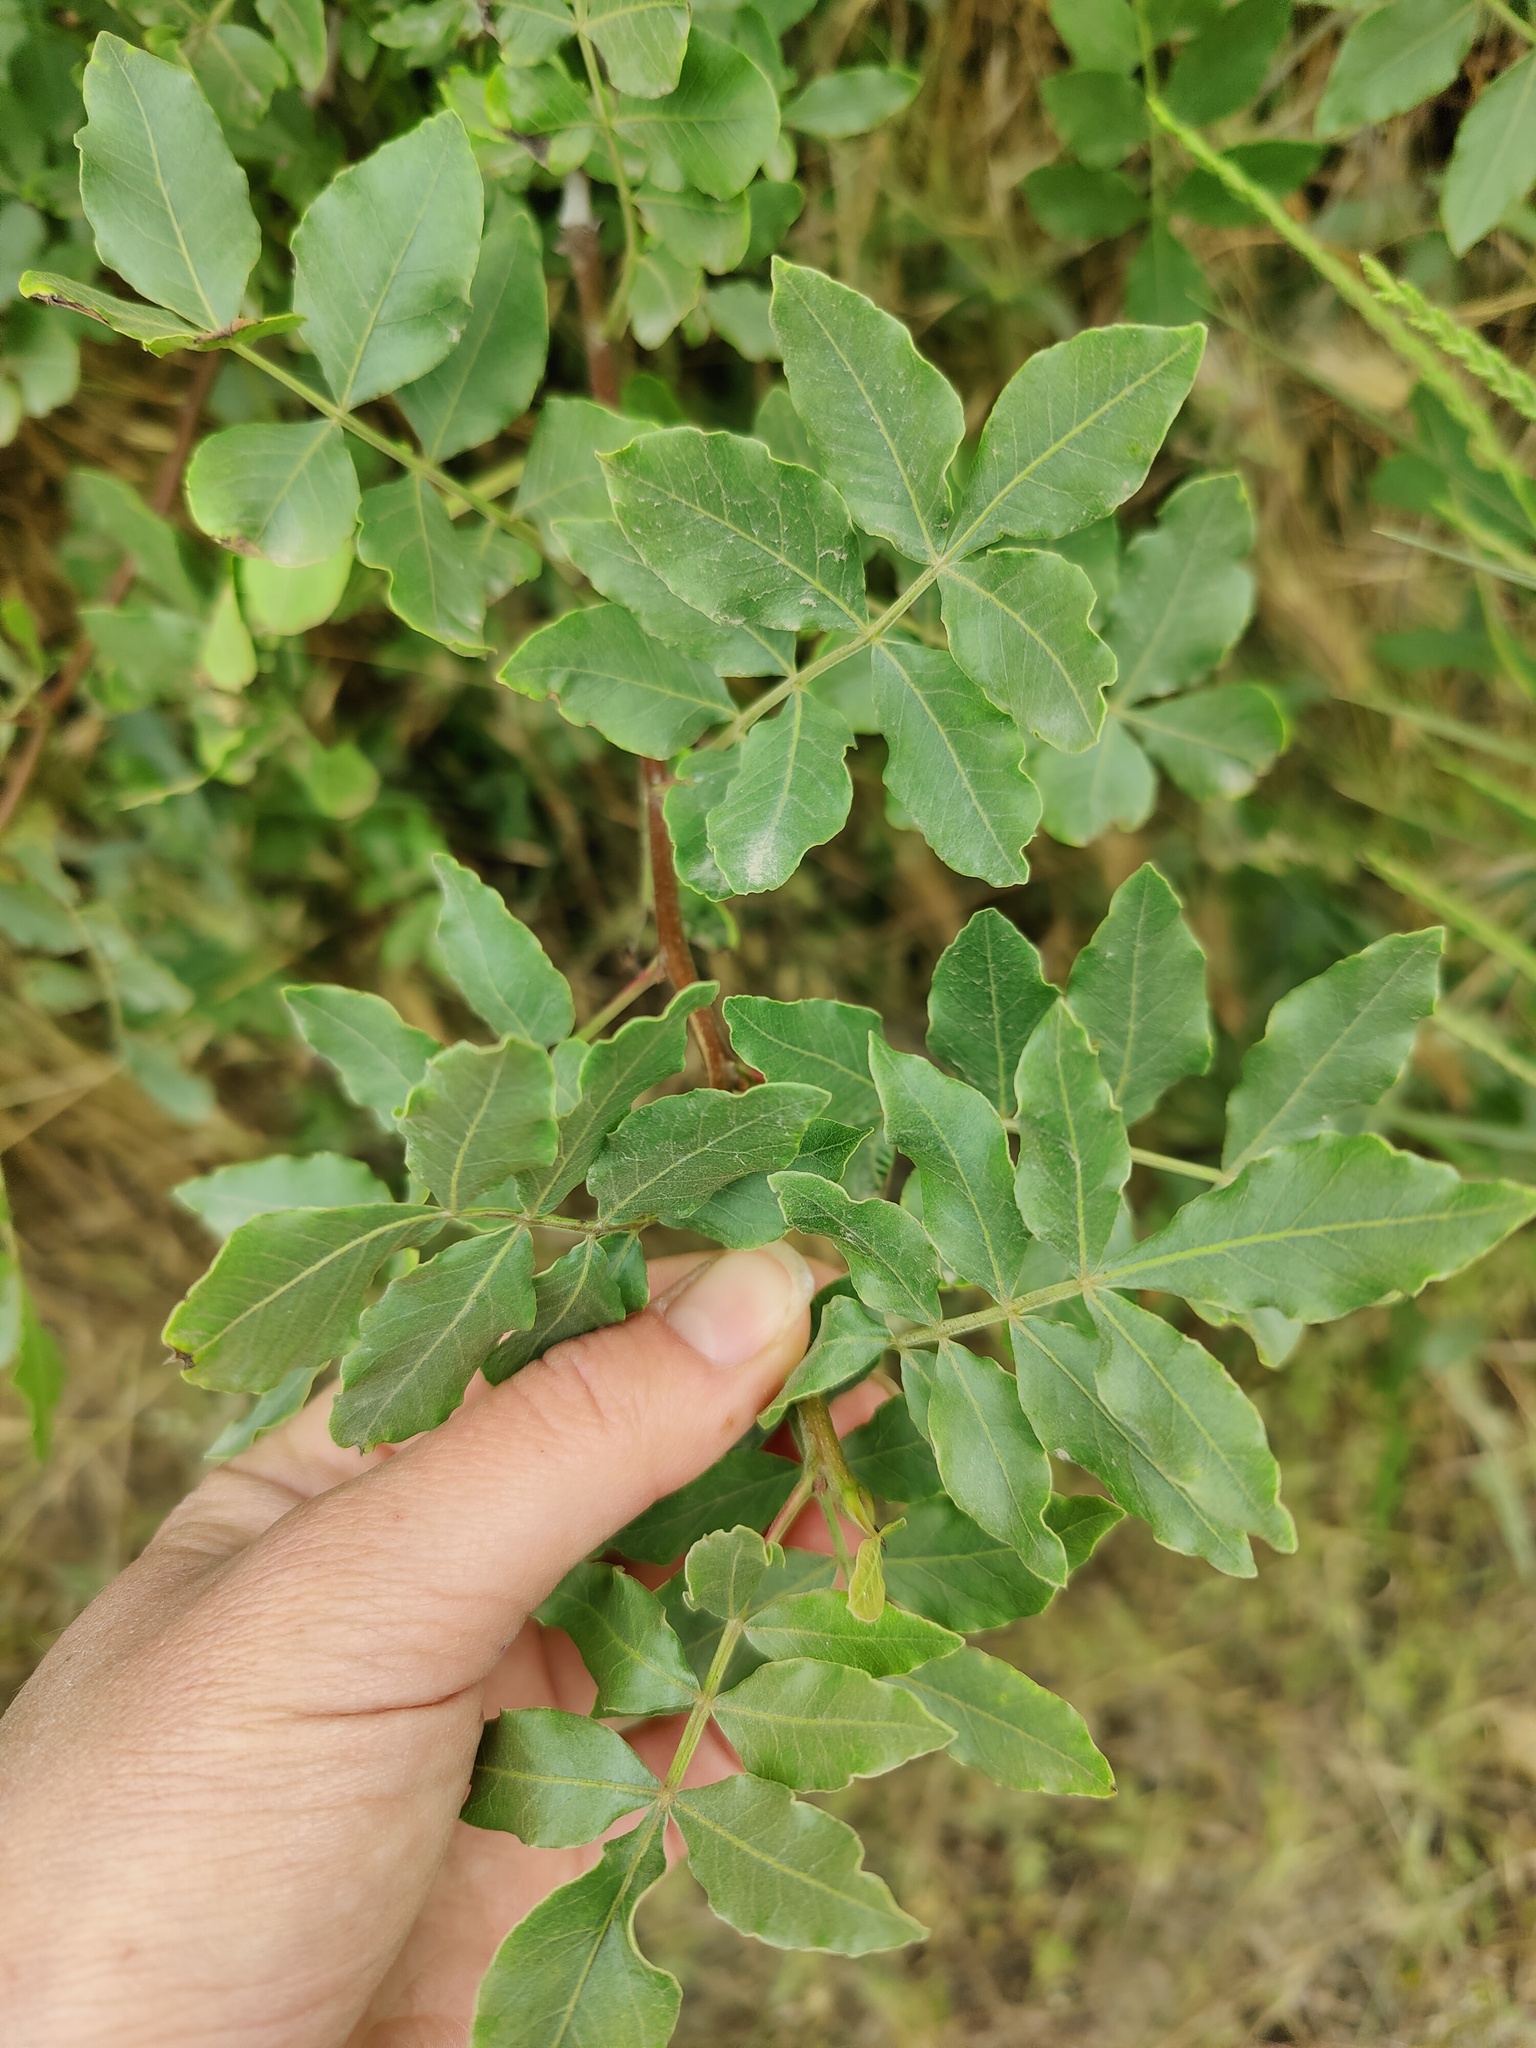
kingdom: Plantae
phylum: Tracheophyta
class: Magnoliopsida
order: Sapindales
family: Anacardiaceae
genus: Pistacia
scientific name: Pistacia atlantica
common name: Mt. atlas mastic tree
